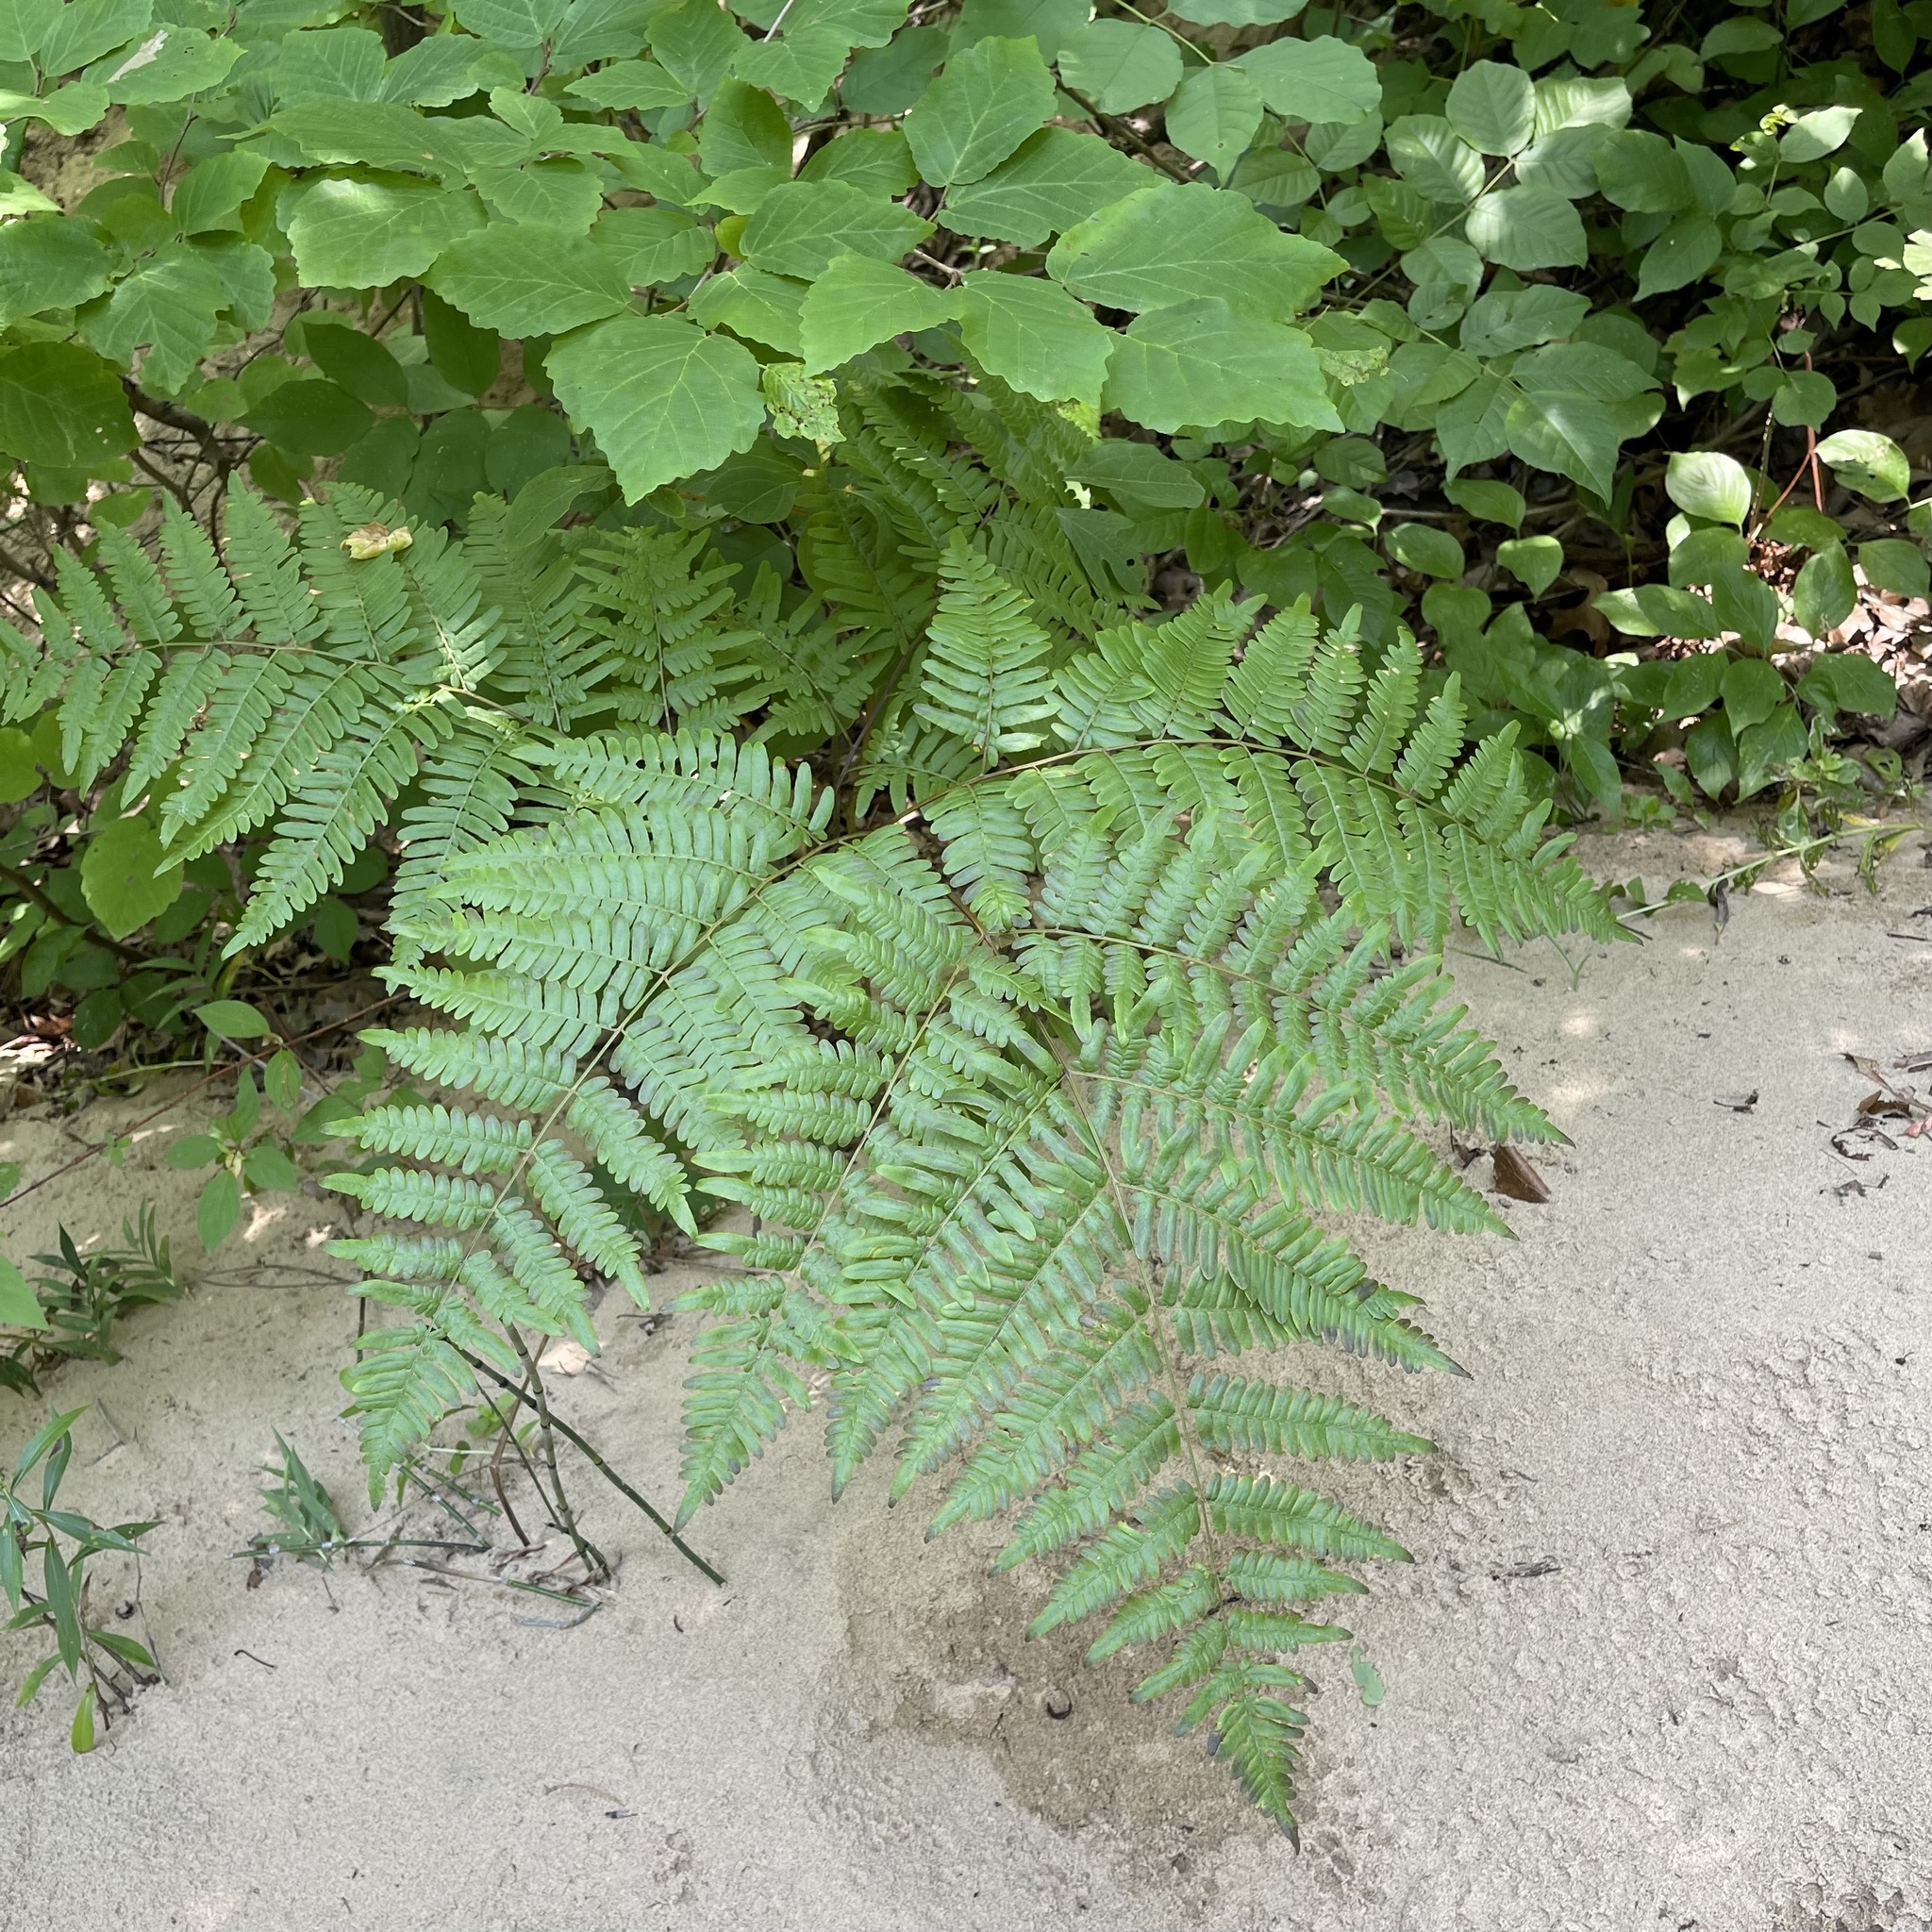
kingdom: Plantae
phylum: Tracheophyta
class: Polypodiopsida
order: Polypodiales
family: Dennstaedtiaceae
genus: Pteridium
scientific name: Pteridium aquilinum
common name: Bracken
